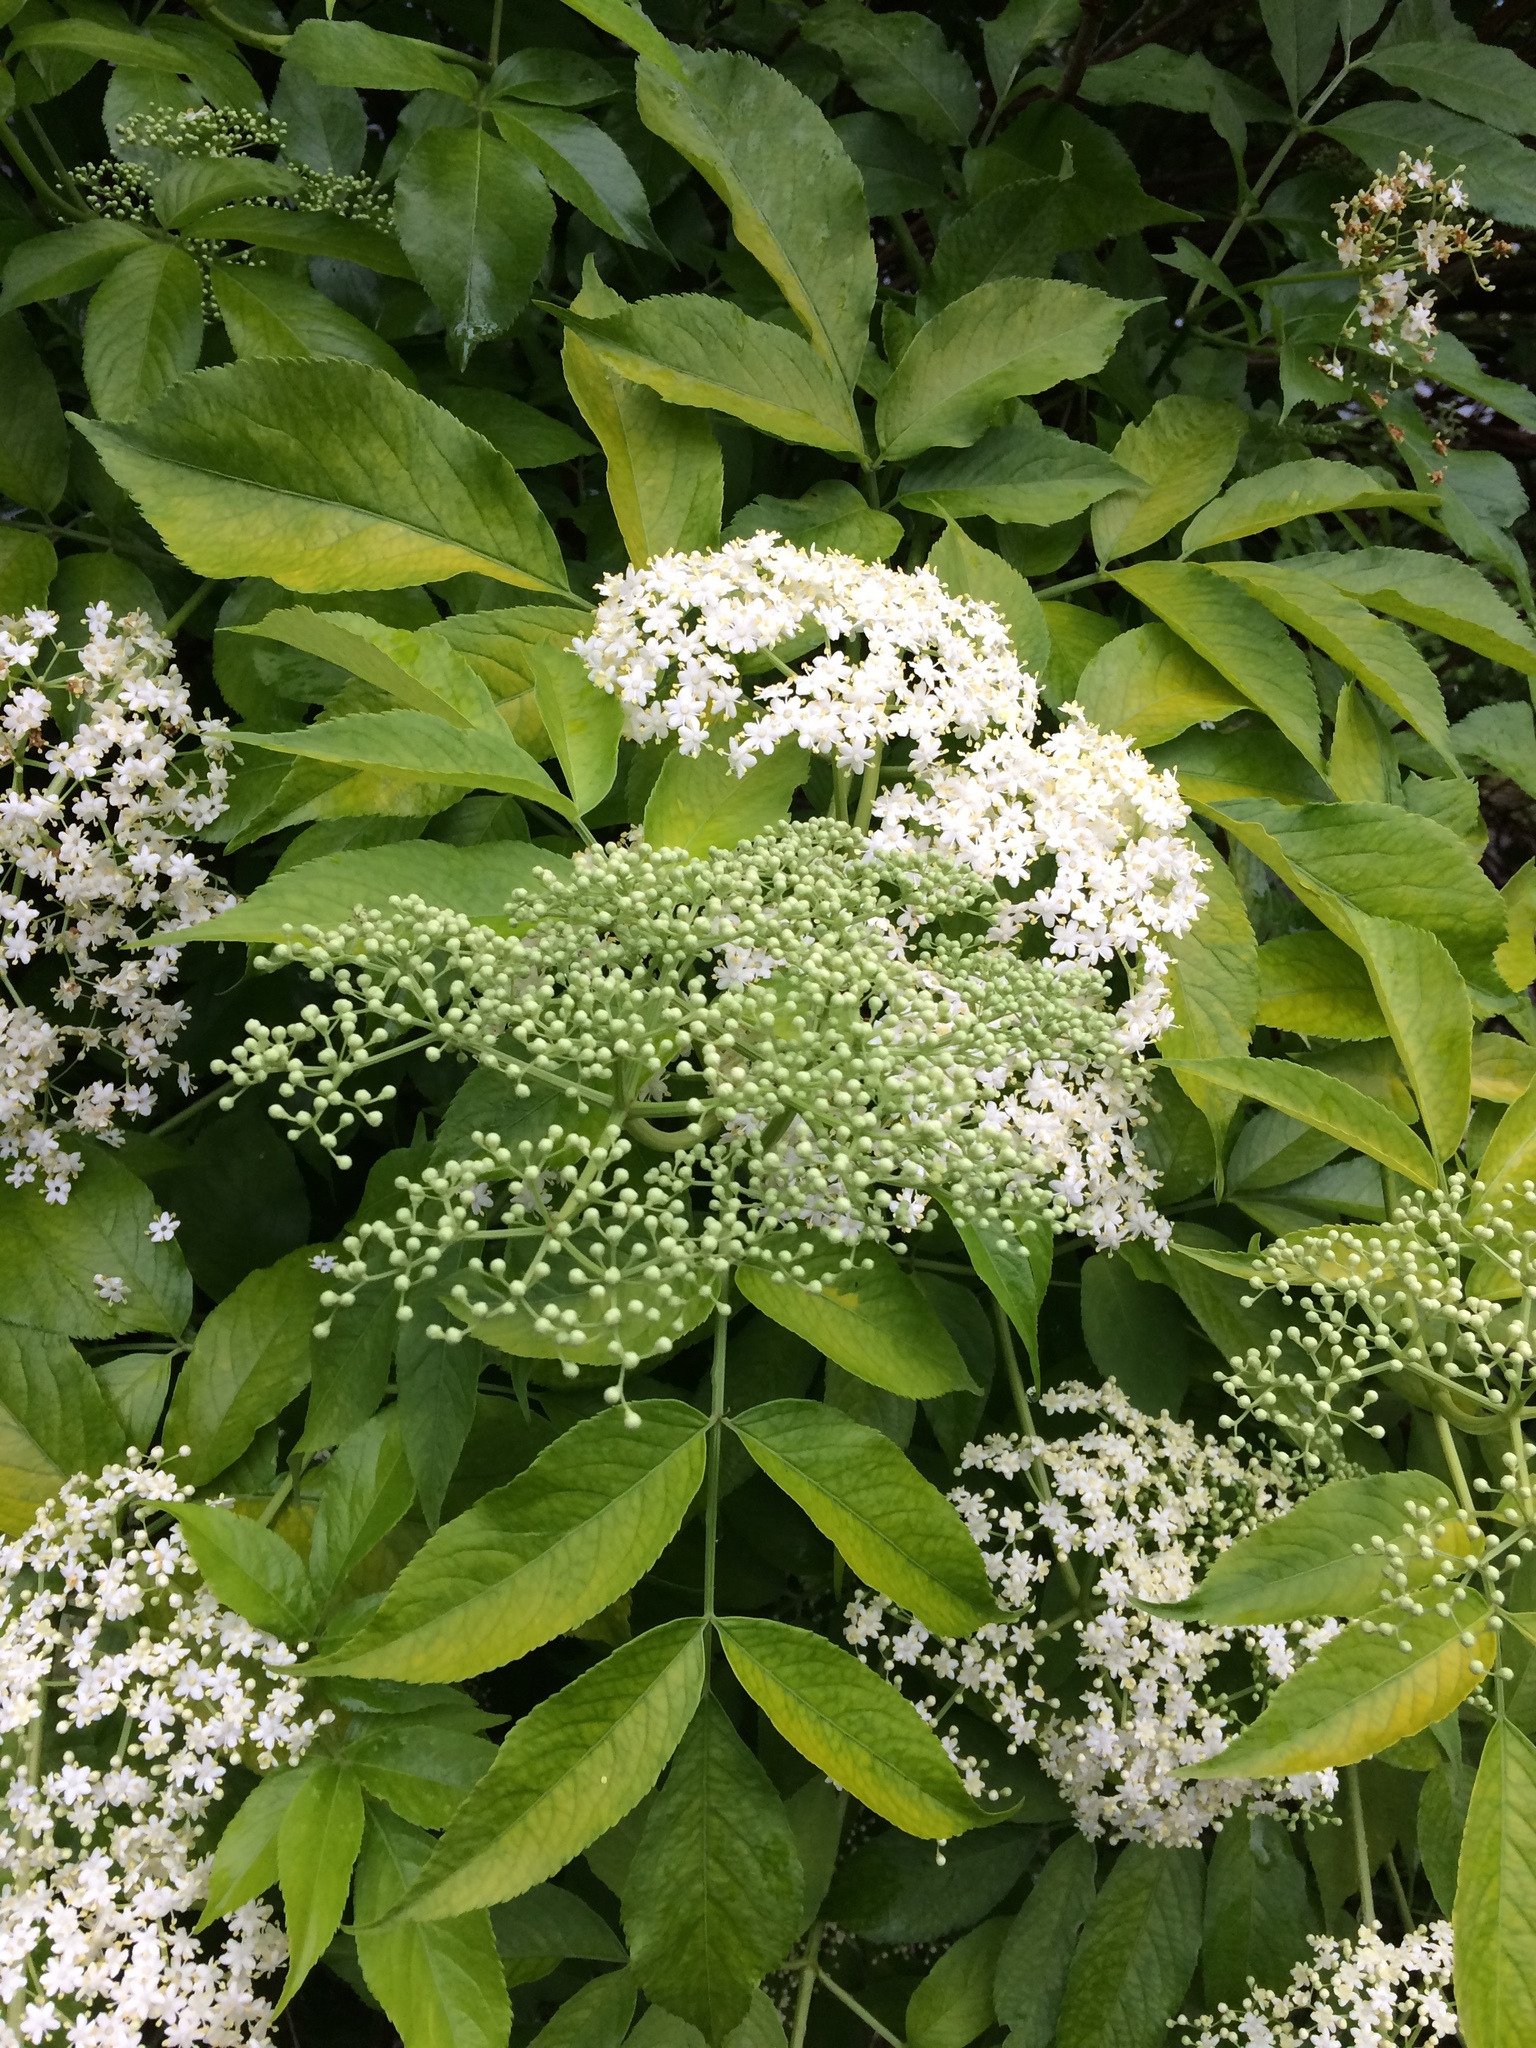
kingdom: Plantae
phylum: Tracheophyta
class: Magnoliopsida
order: Dipsacales
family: Viburnaceae
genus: Sambucus
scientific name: Sambucus canadensis
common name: American elder
